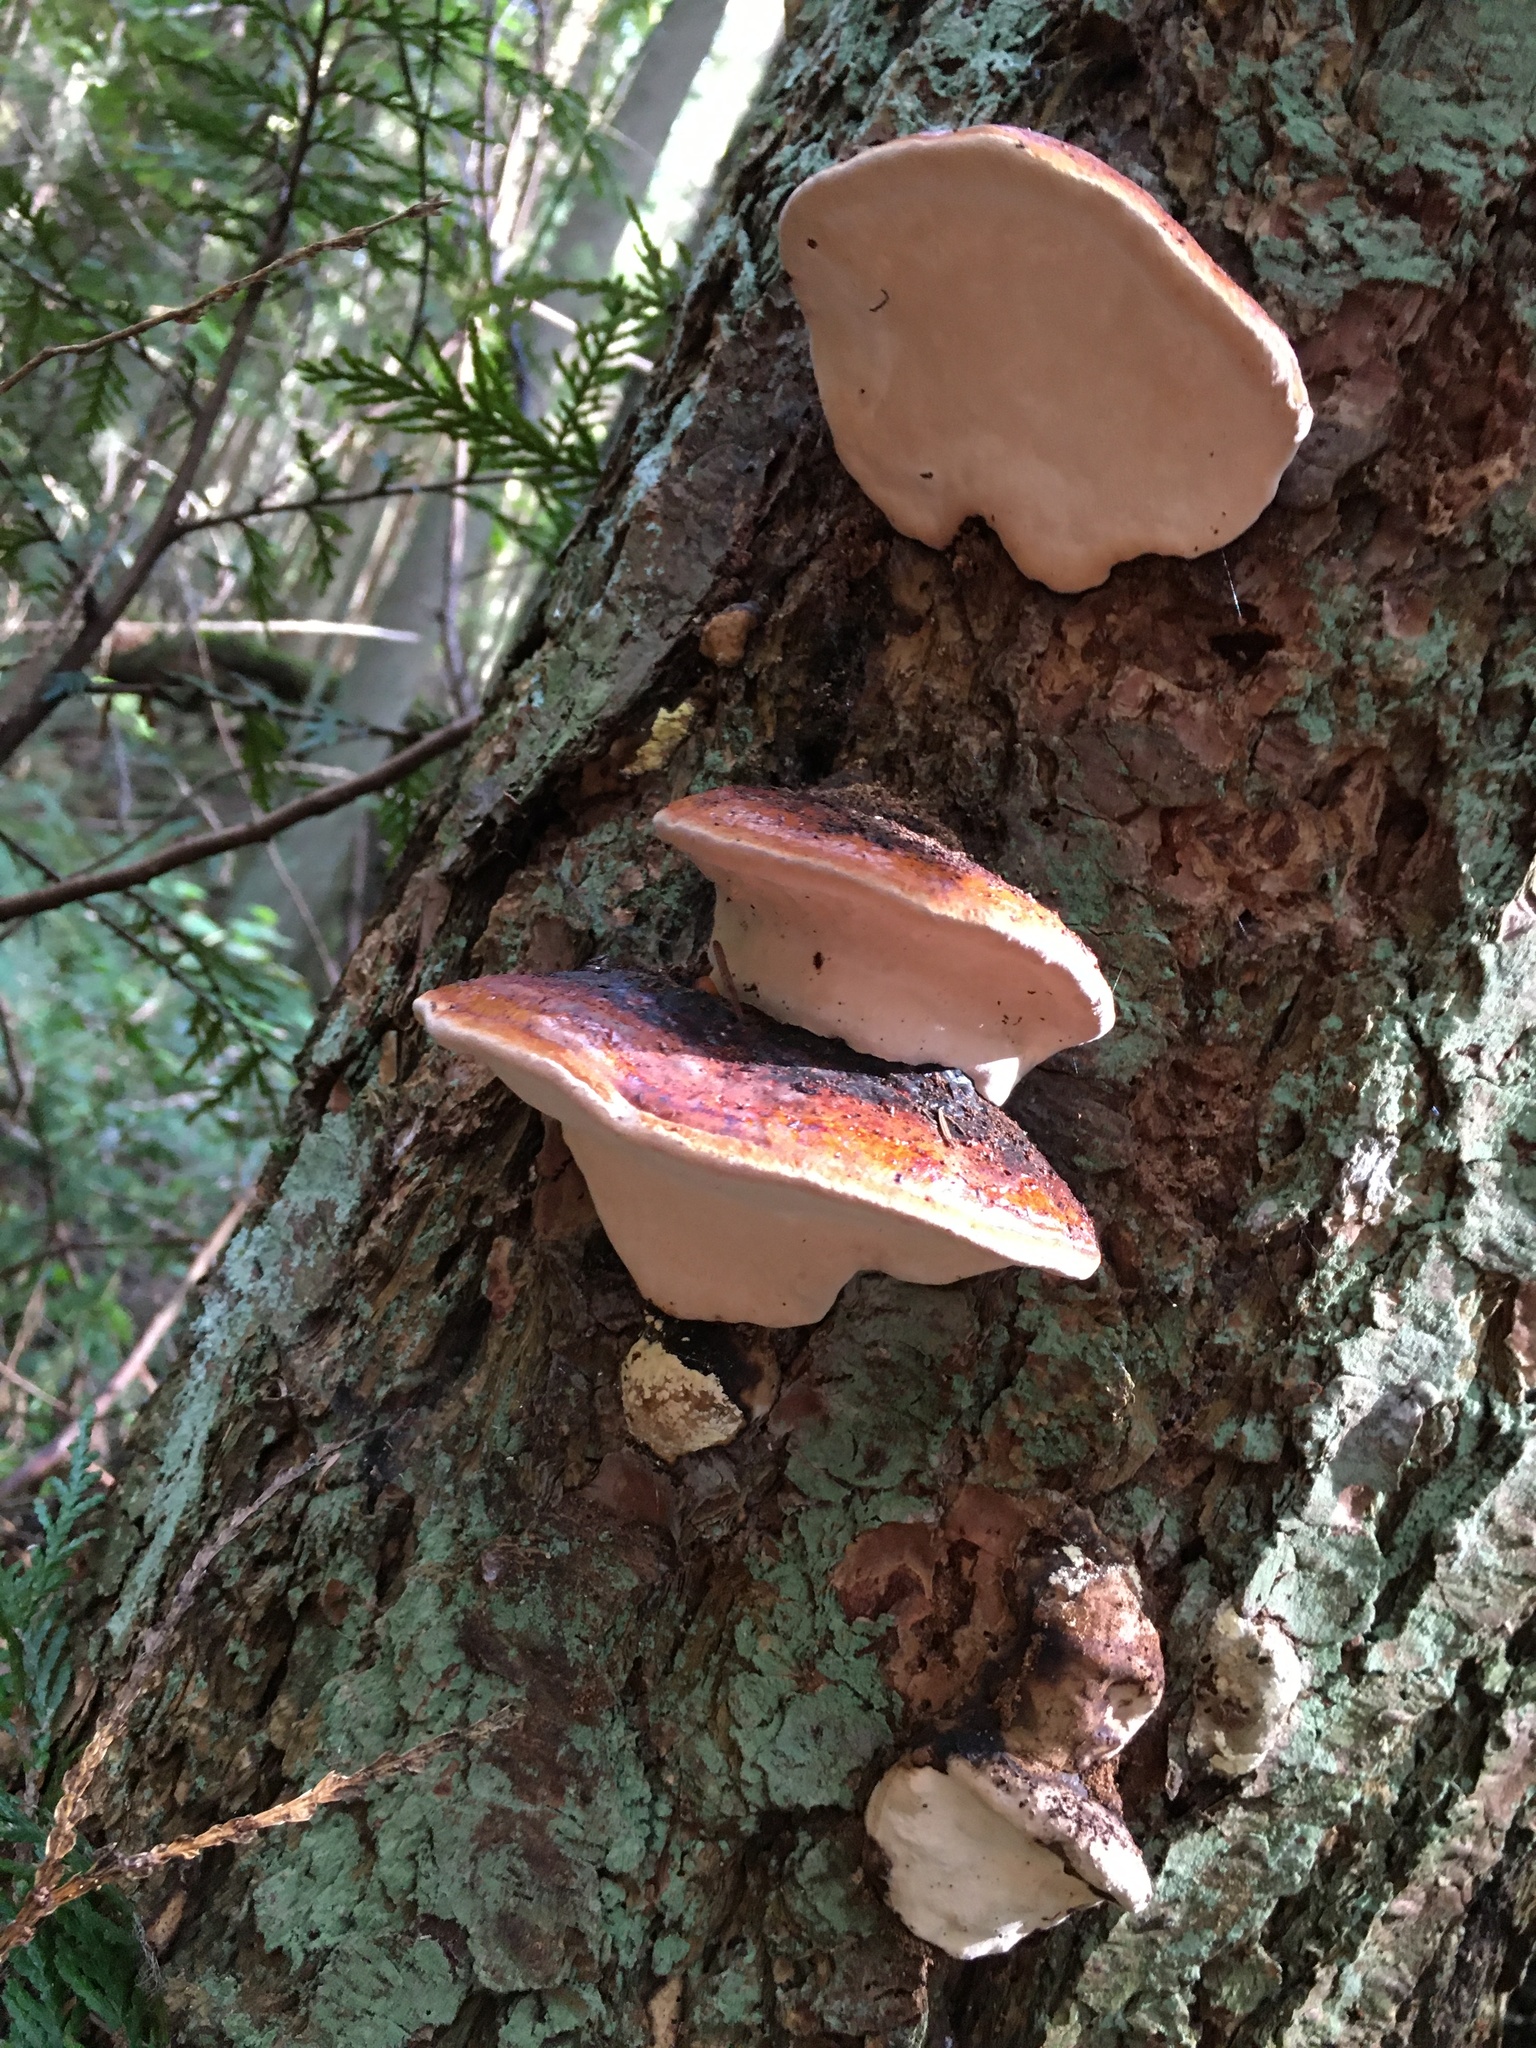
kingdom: Fungi
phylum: Basidiomycota
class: Agaricomycetes
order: Polyporales
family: Fomitopsidaceae
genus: Fomitopsis
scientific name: Fomitopsis mounceae
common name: Northern red belt
